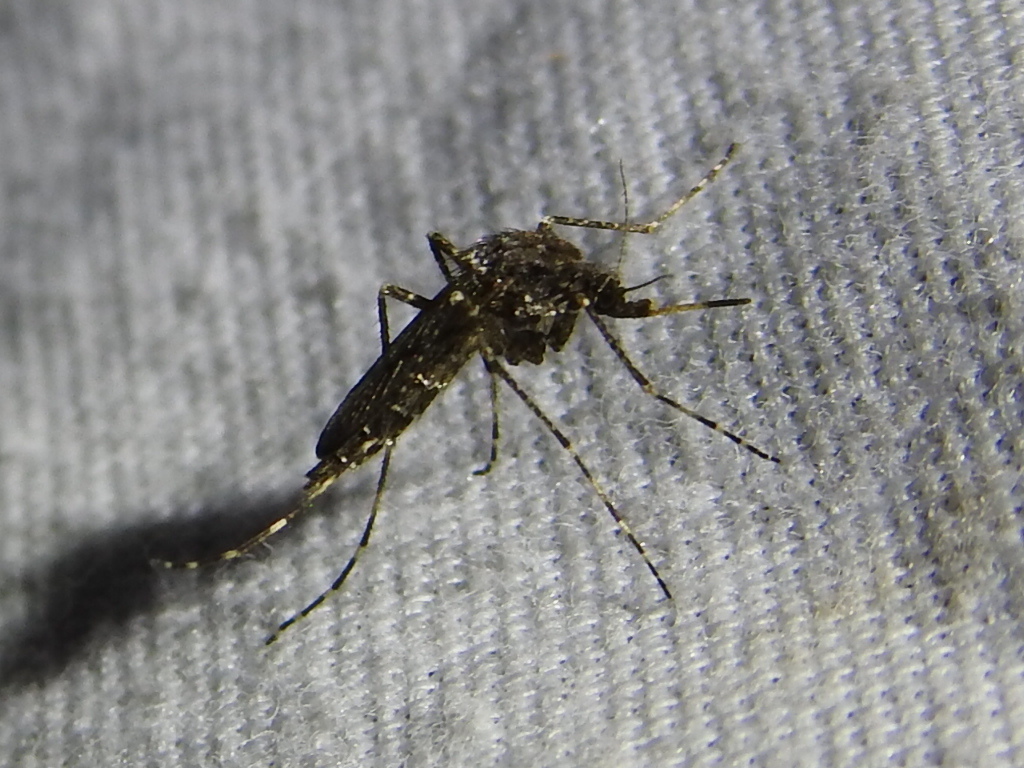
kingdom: Animalia
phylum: Arthropoda
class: Insecta
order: Diptera
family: Culicidae
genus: Psorophora
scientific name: Psorophora columbiae
